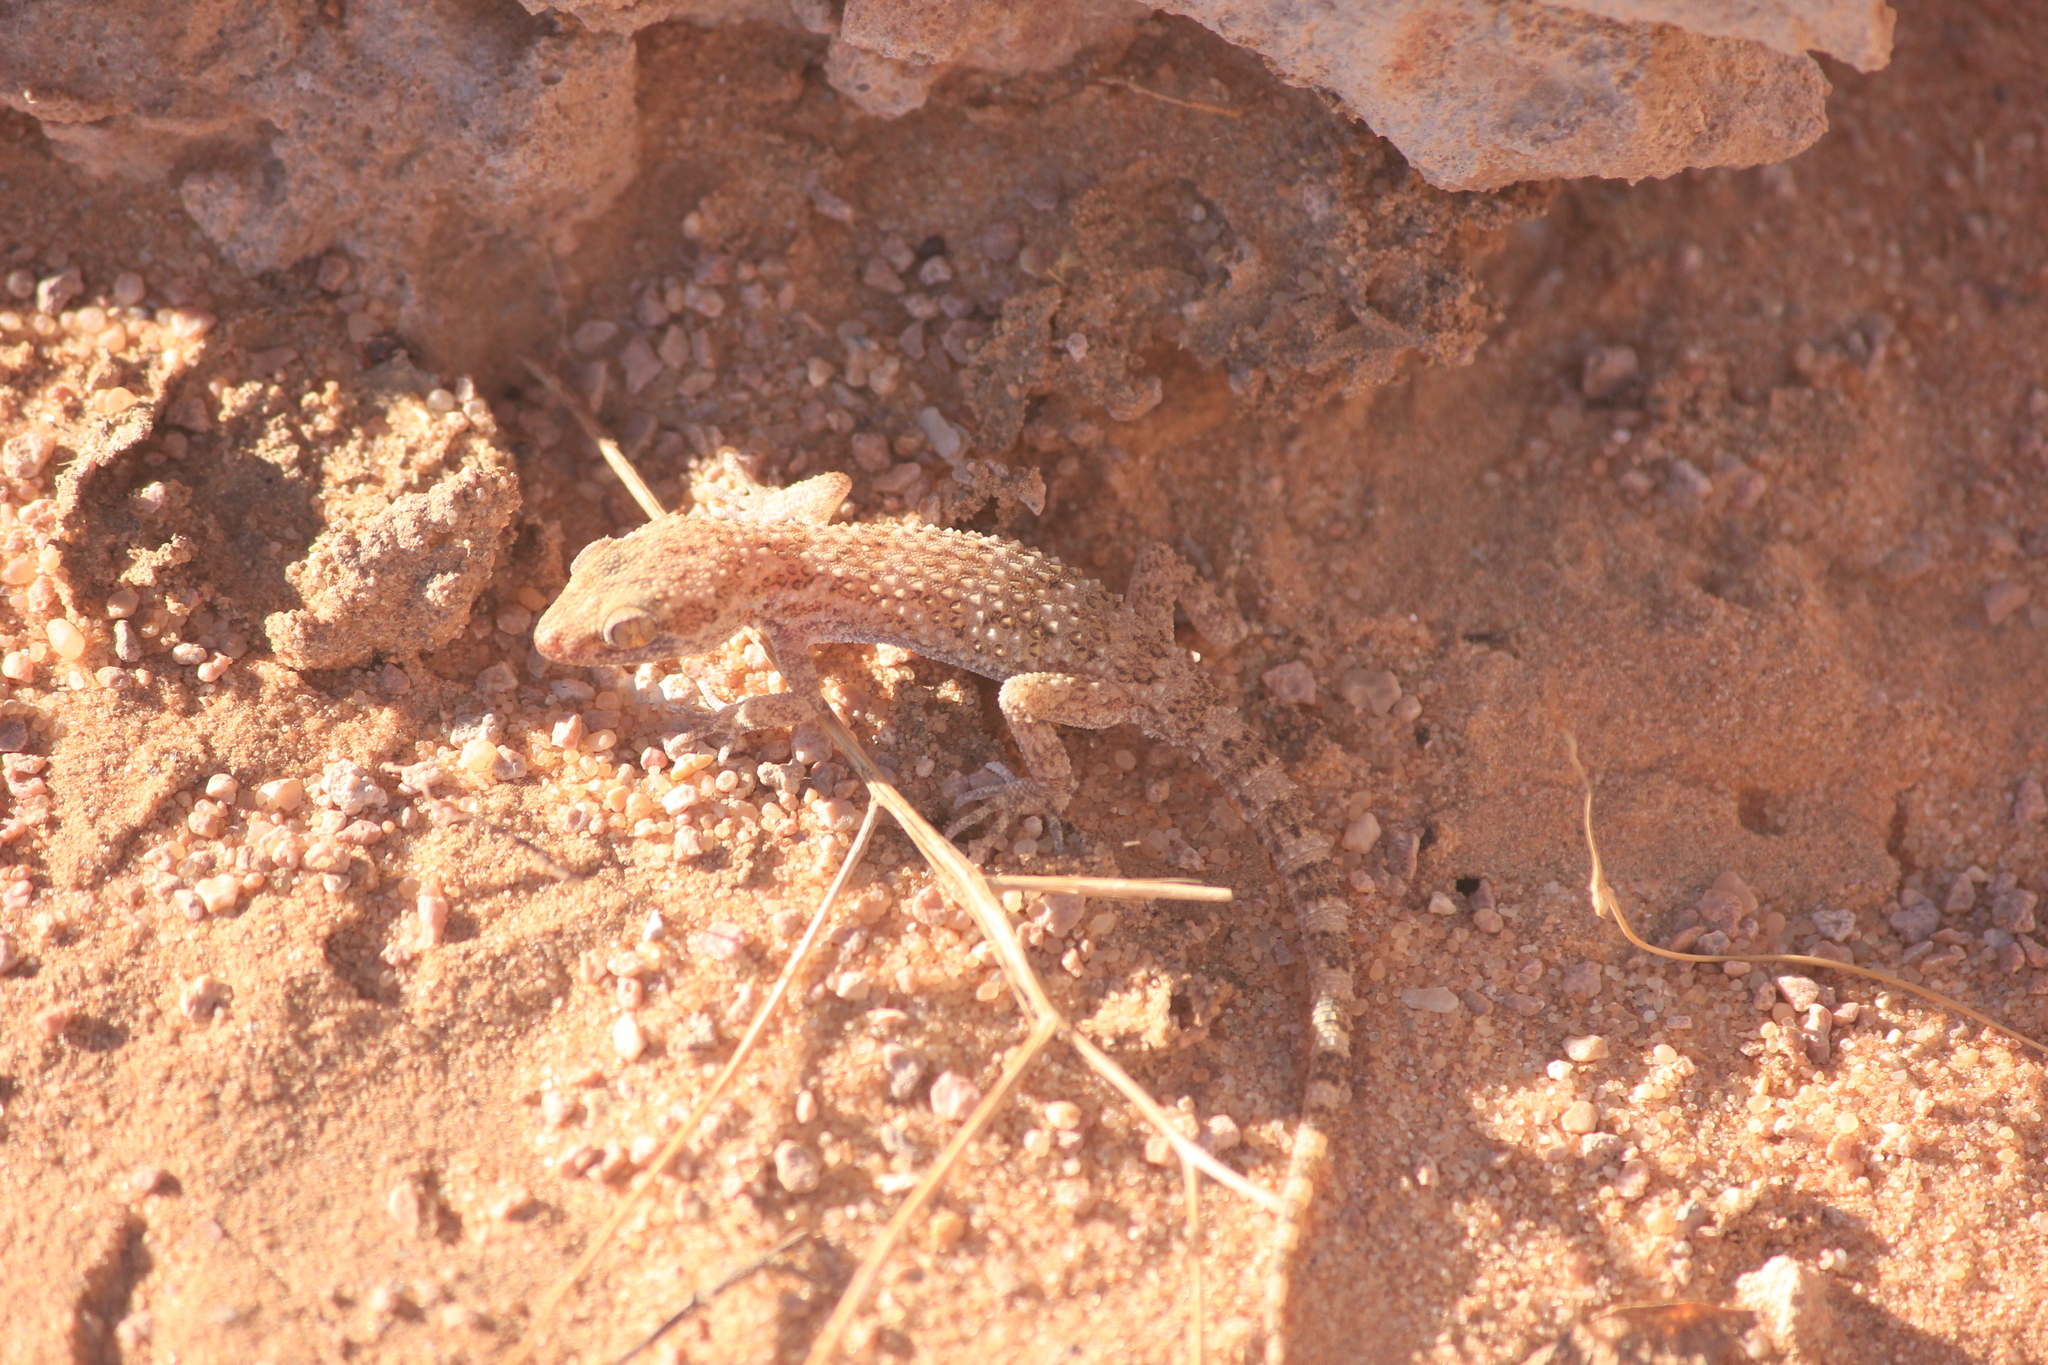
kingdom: Animalia
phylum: Chordata
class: Squamata
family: Gekkonidae
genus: Bunopus
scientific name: Bunopus tuberculatus
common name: Southern tuberculated gecko
